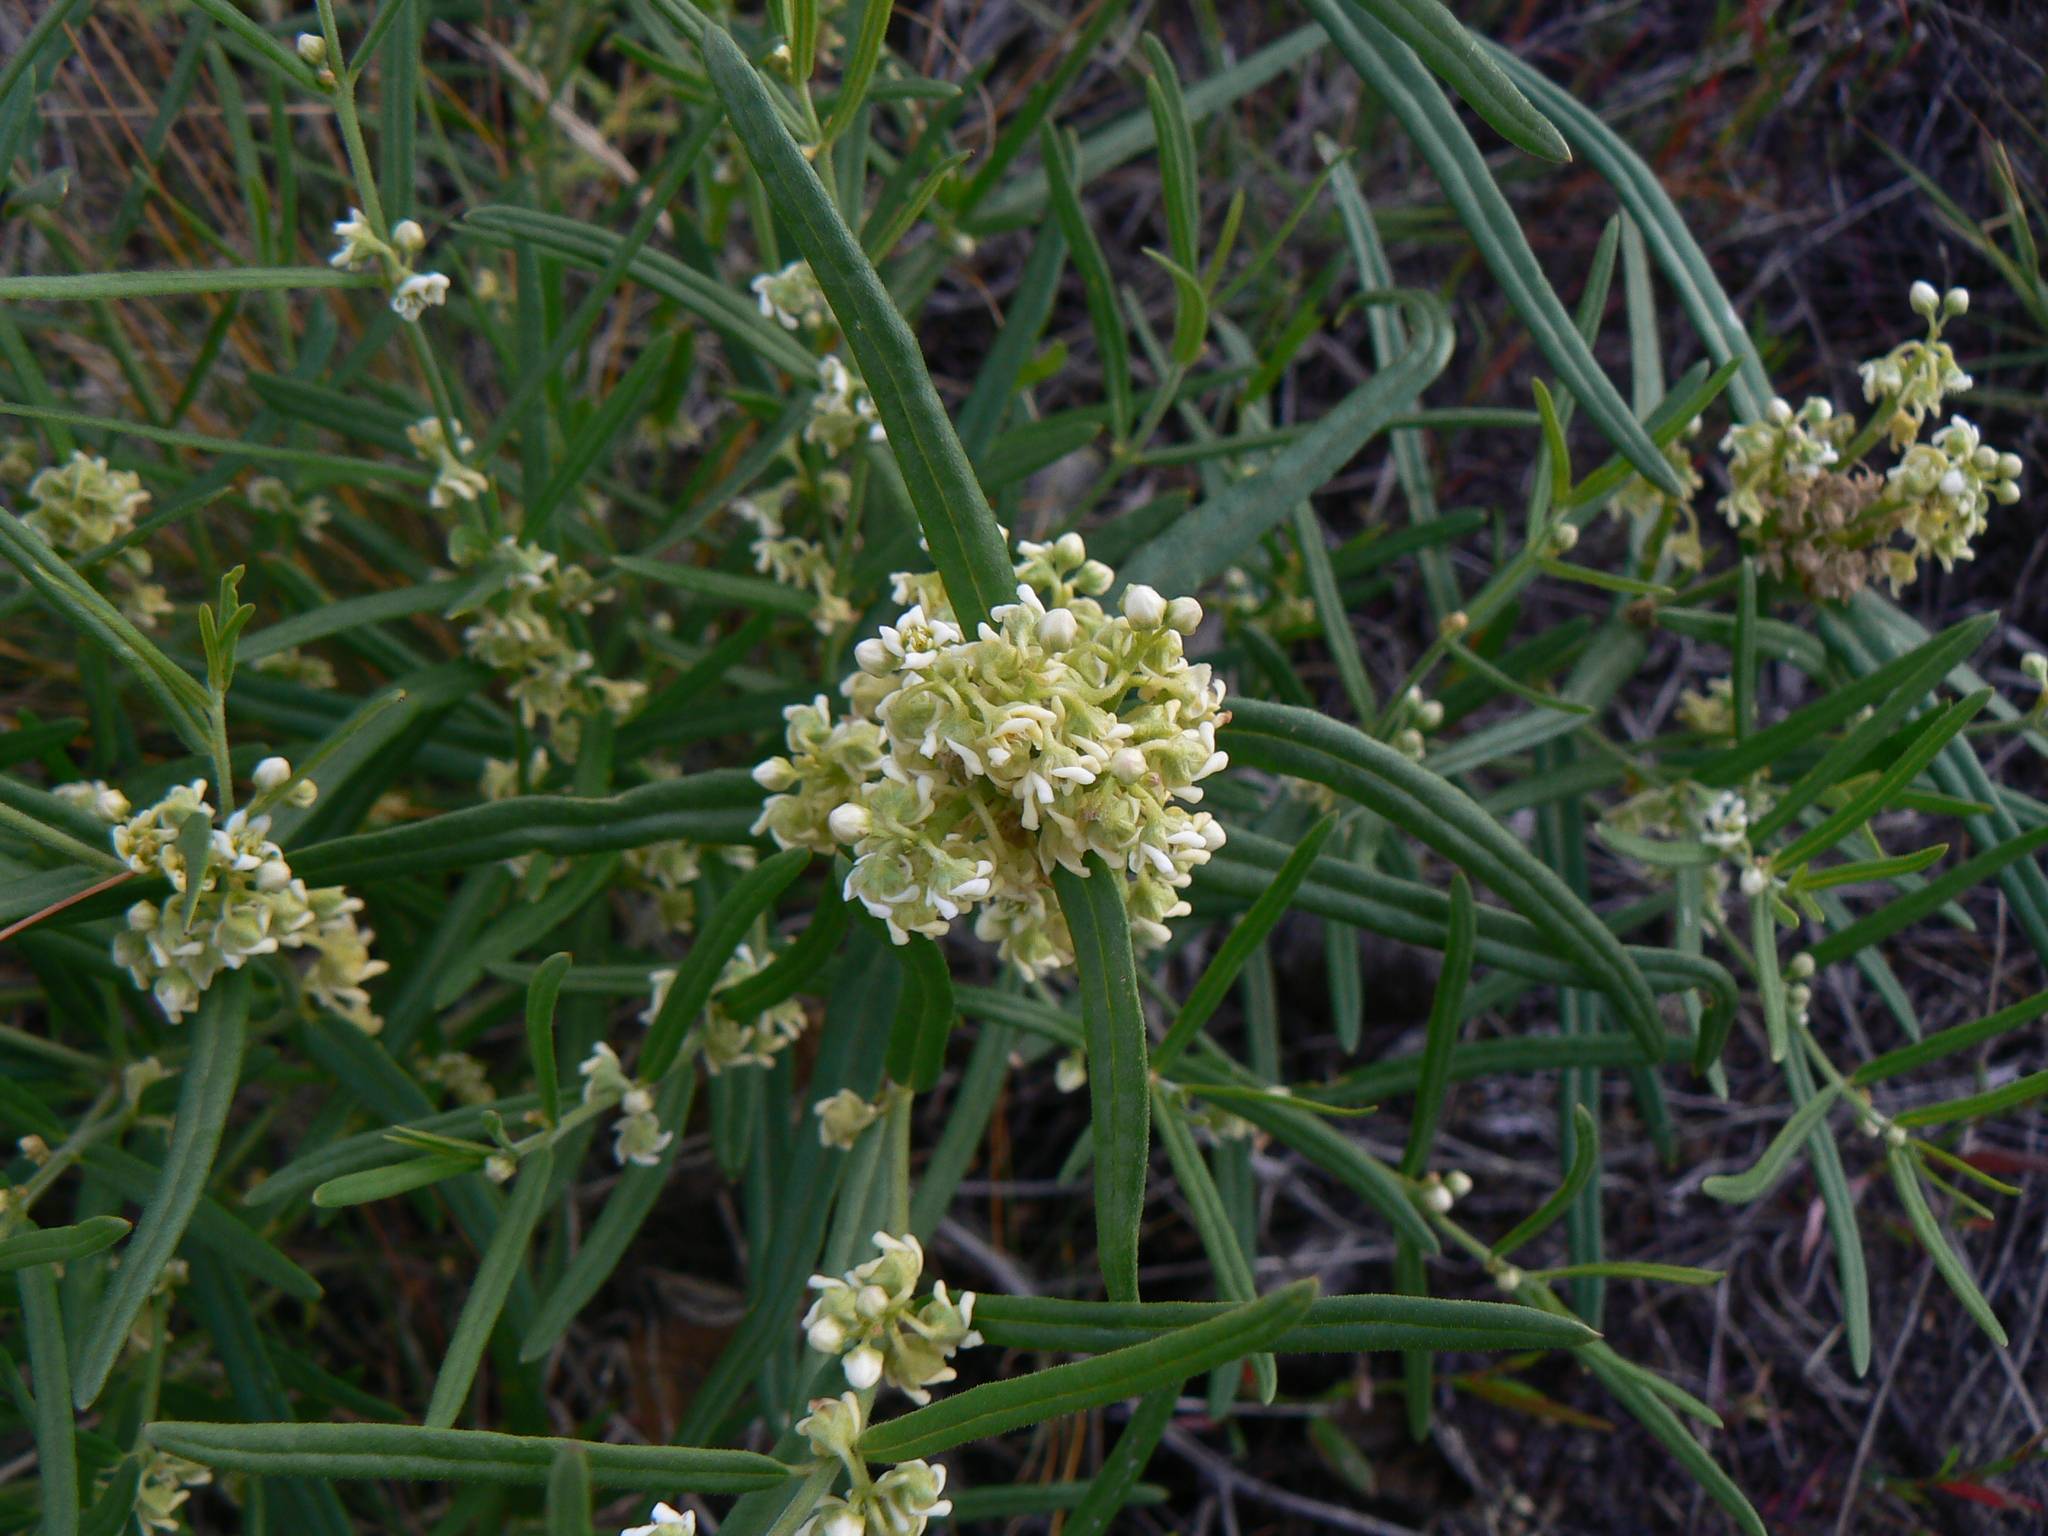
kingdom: Plantae
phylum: Tracheophyta
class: Magnoliopsida
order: Gentianales
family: Apocynaceae
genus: Cynanchum
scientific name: Cynanchum thesioides
